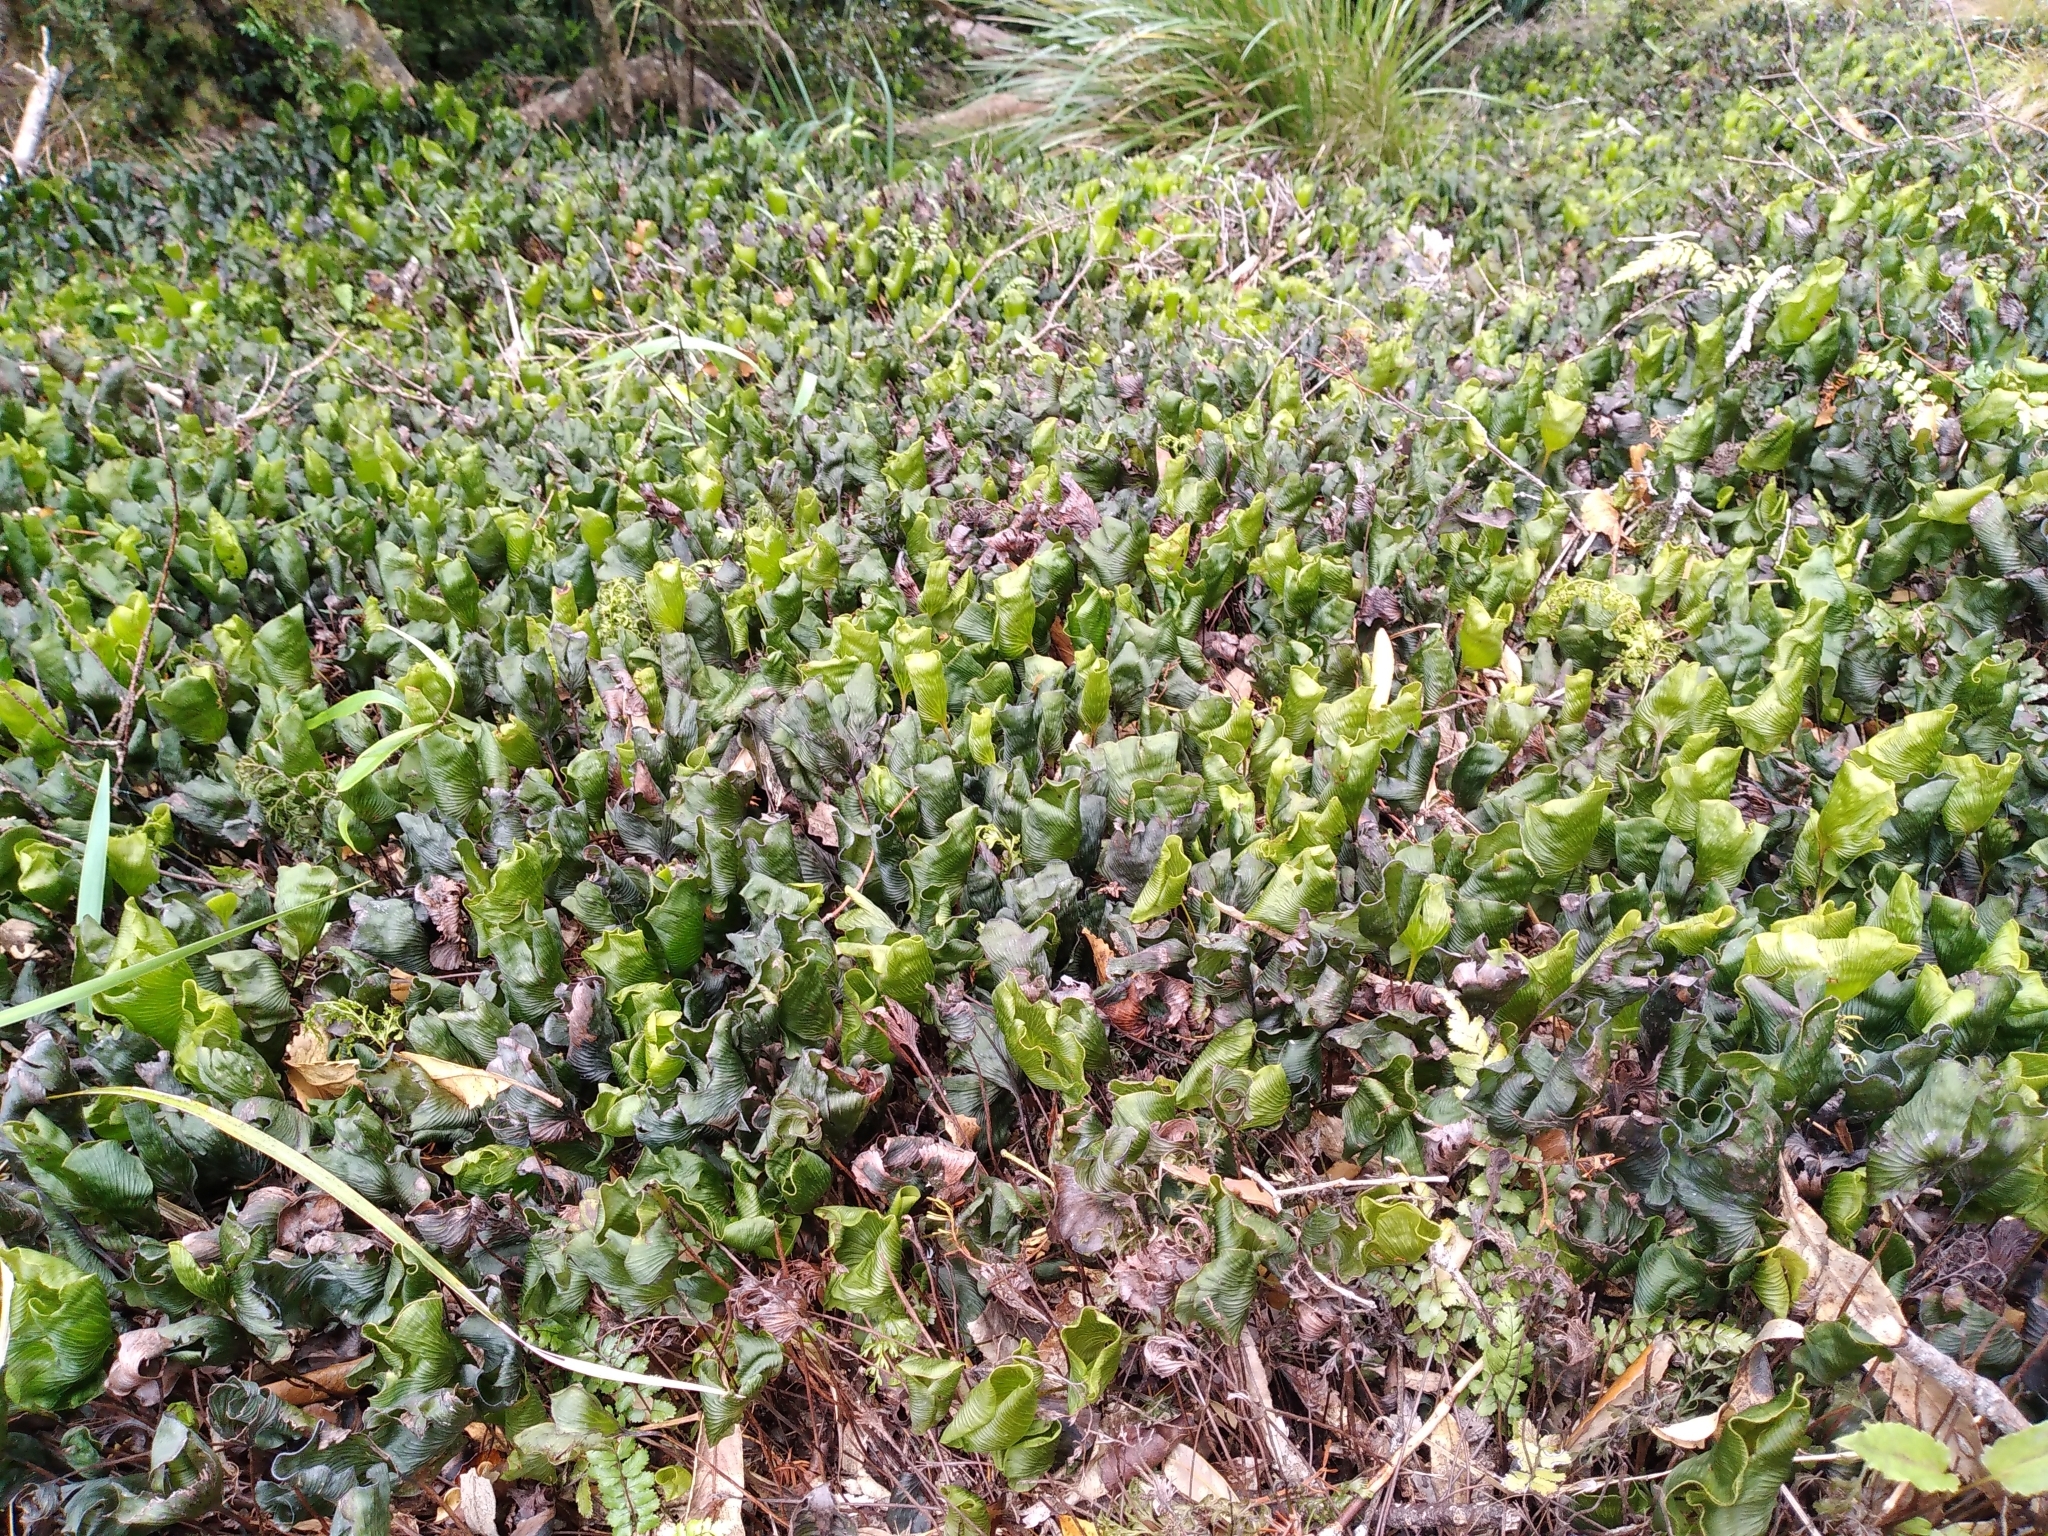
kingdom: Plantae
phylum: Tracheophyta
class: Polypodiopsida
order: Hymenophyllales
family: Hymenophyllaceae
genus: Hymenophyllum
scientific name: Hymenophyllum nephrophyllum
